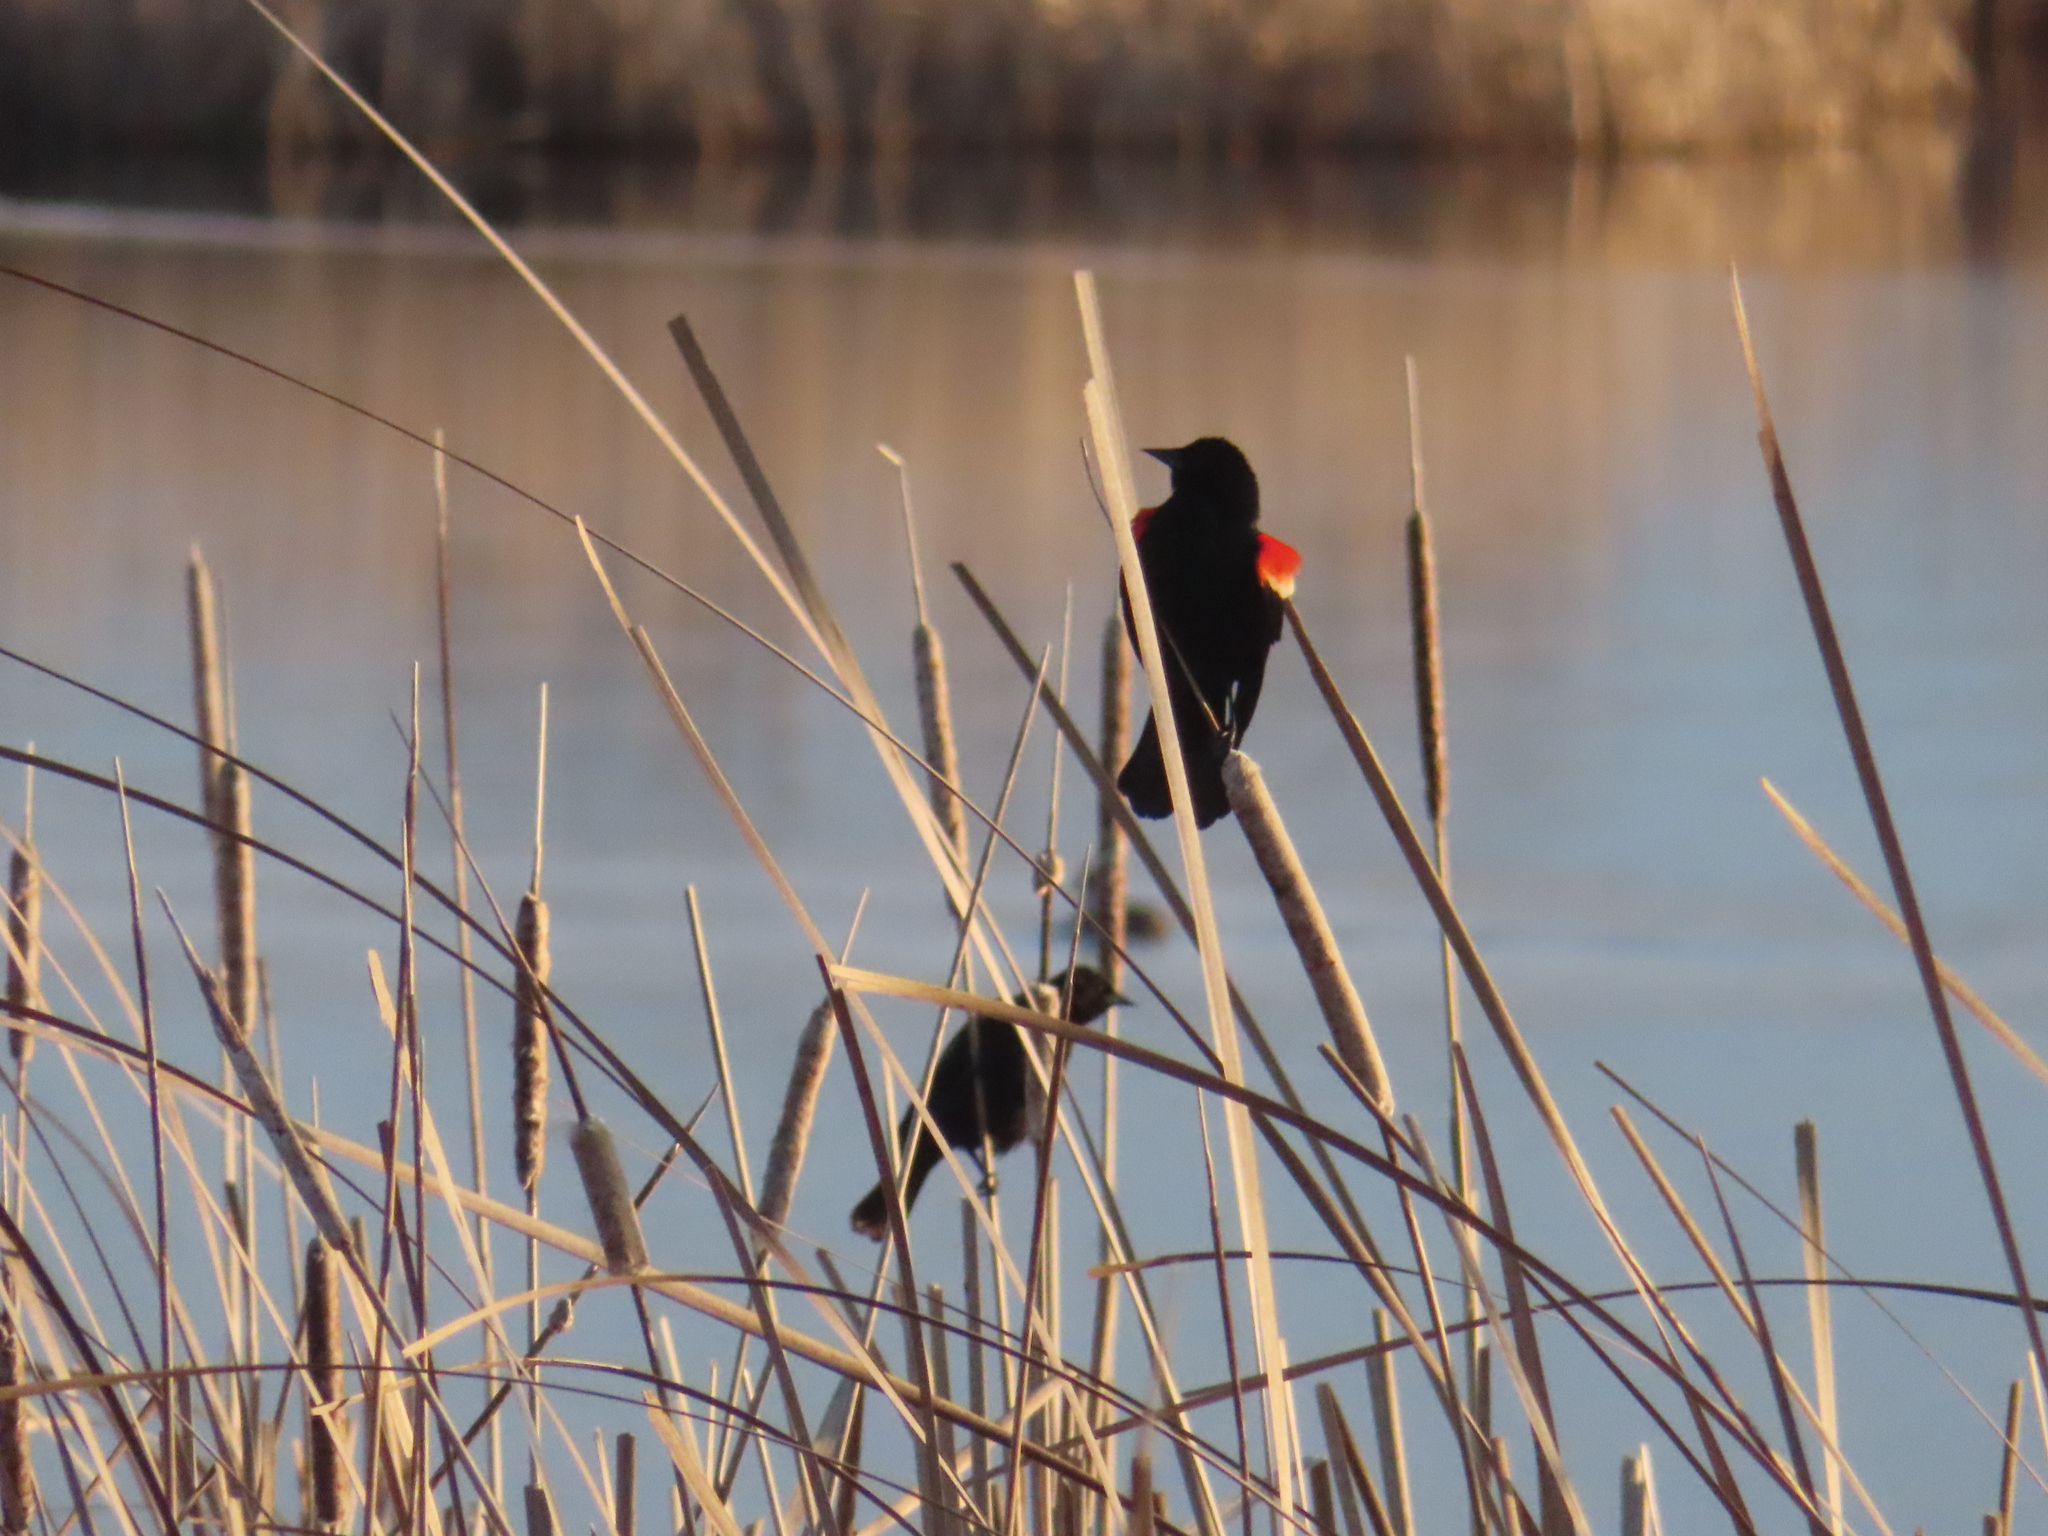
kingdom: Animalia
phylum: Chordata
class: Aves
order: Passeriformes
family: Icteridae
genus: Agelaius
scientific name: Agelaius phoeniceus
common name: Red-winged blackbird
